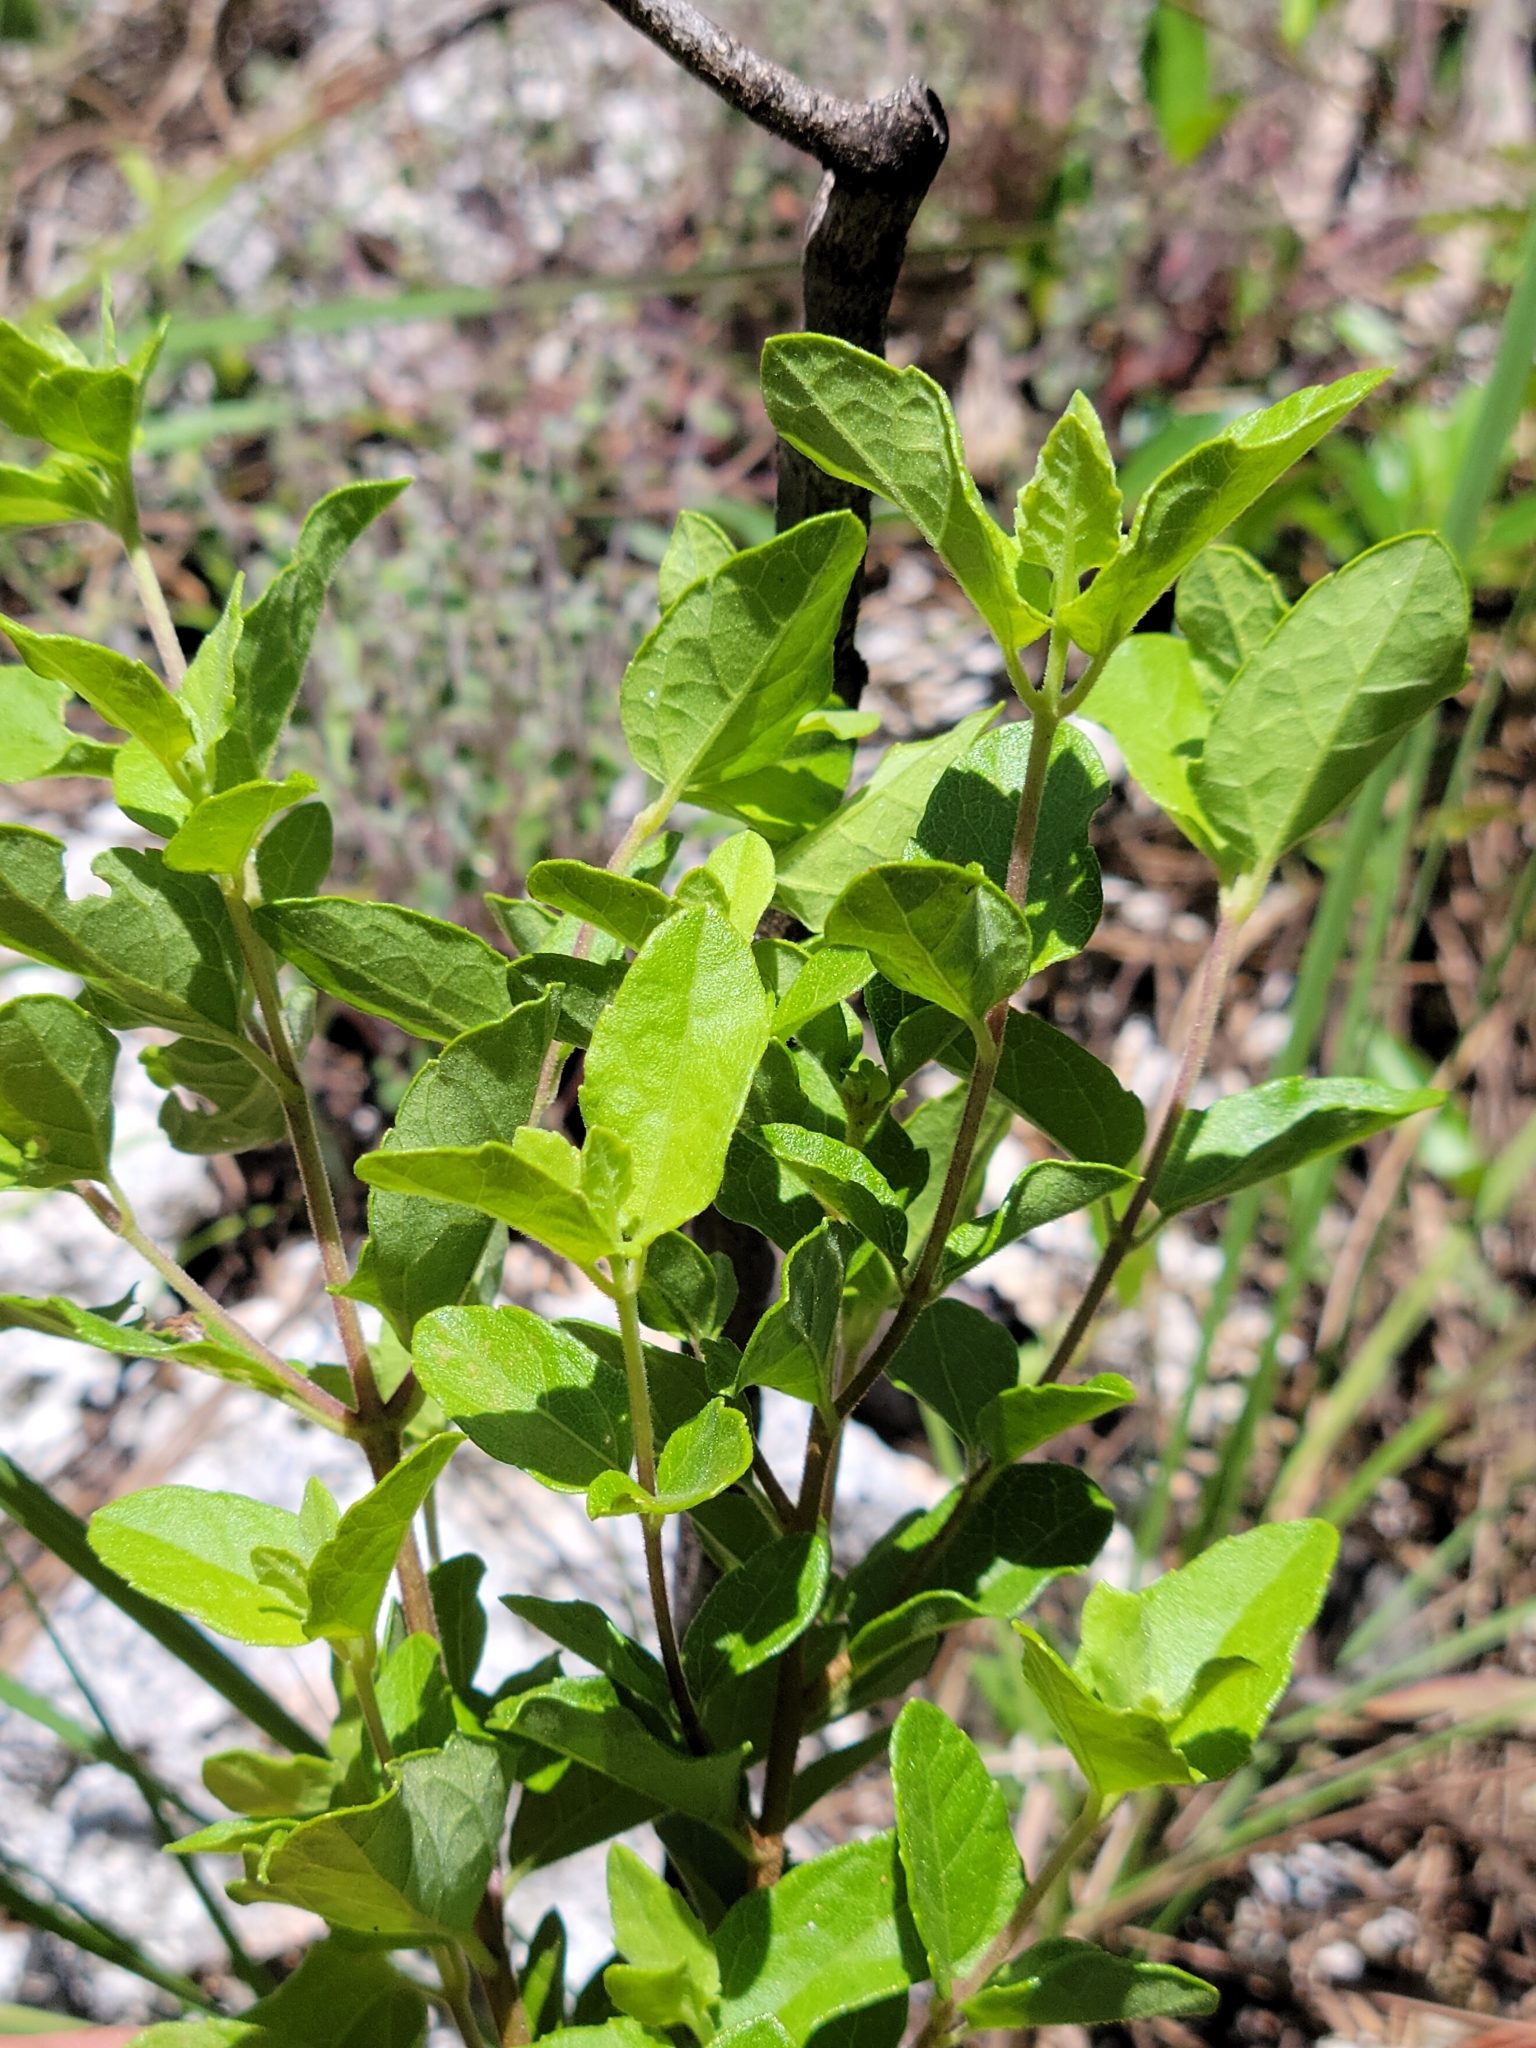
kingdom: Plantae
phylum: Tracheophyta
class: Magnoliopsida
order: Asterales
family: Asteraceae
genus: Koanophyllon
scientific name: Koanophyllon villosum
